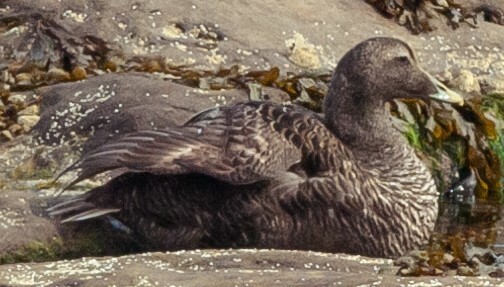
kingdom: Animalia
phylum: Chordata
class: Aves
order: Anseriformes
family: Anatidae
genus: Somateria
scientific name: Somateria mollissima
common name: Common eider
